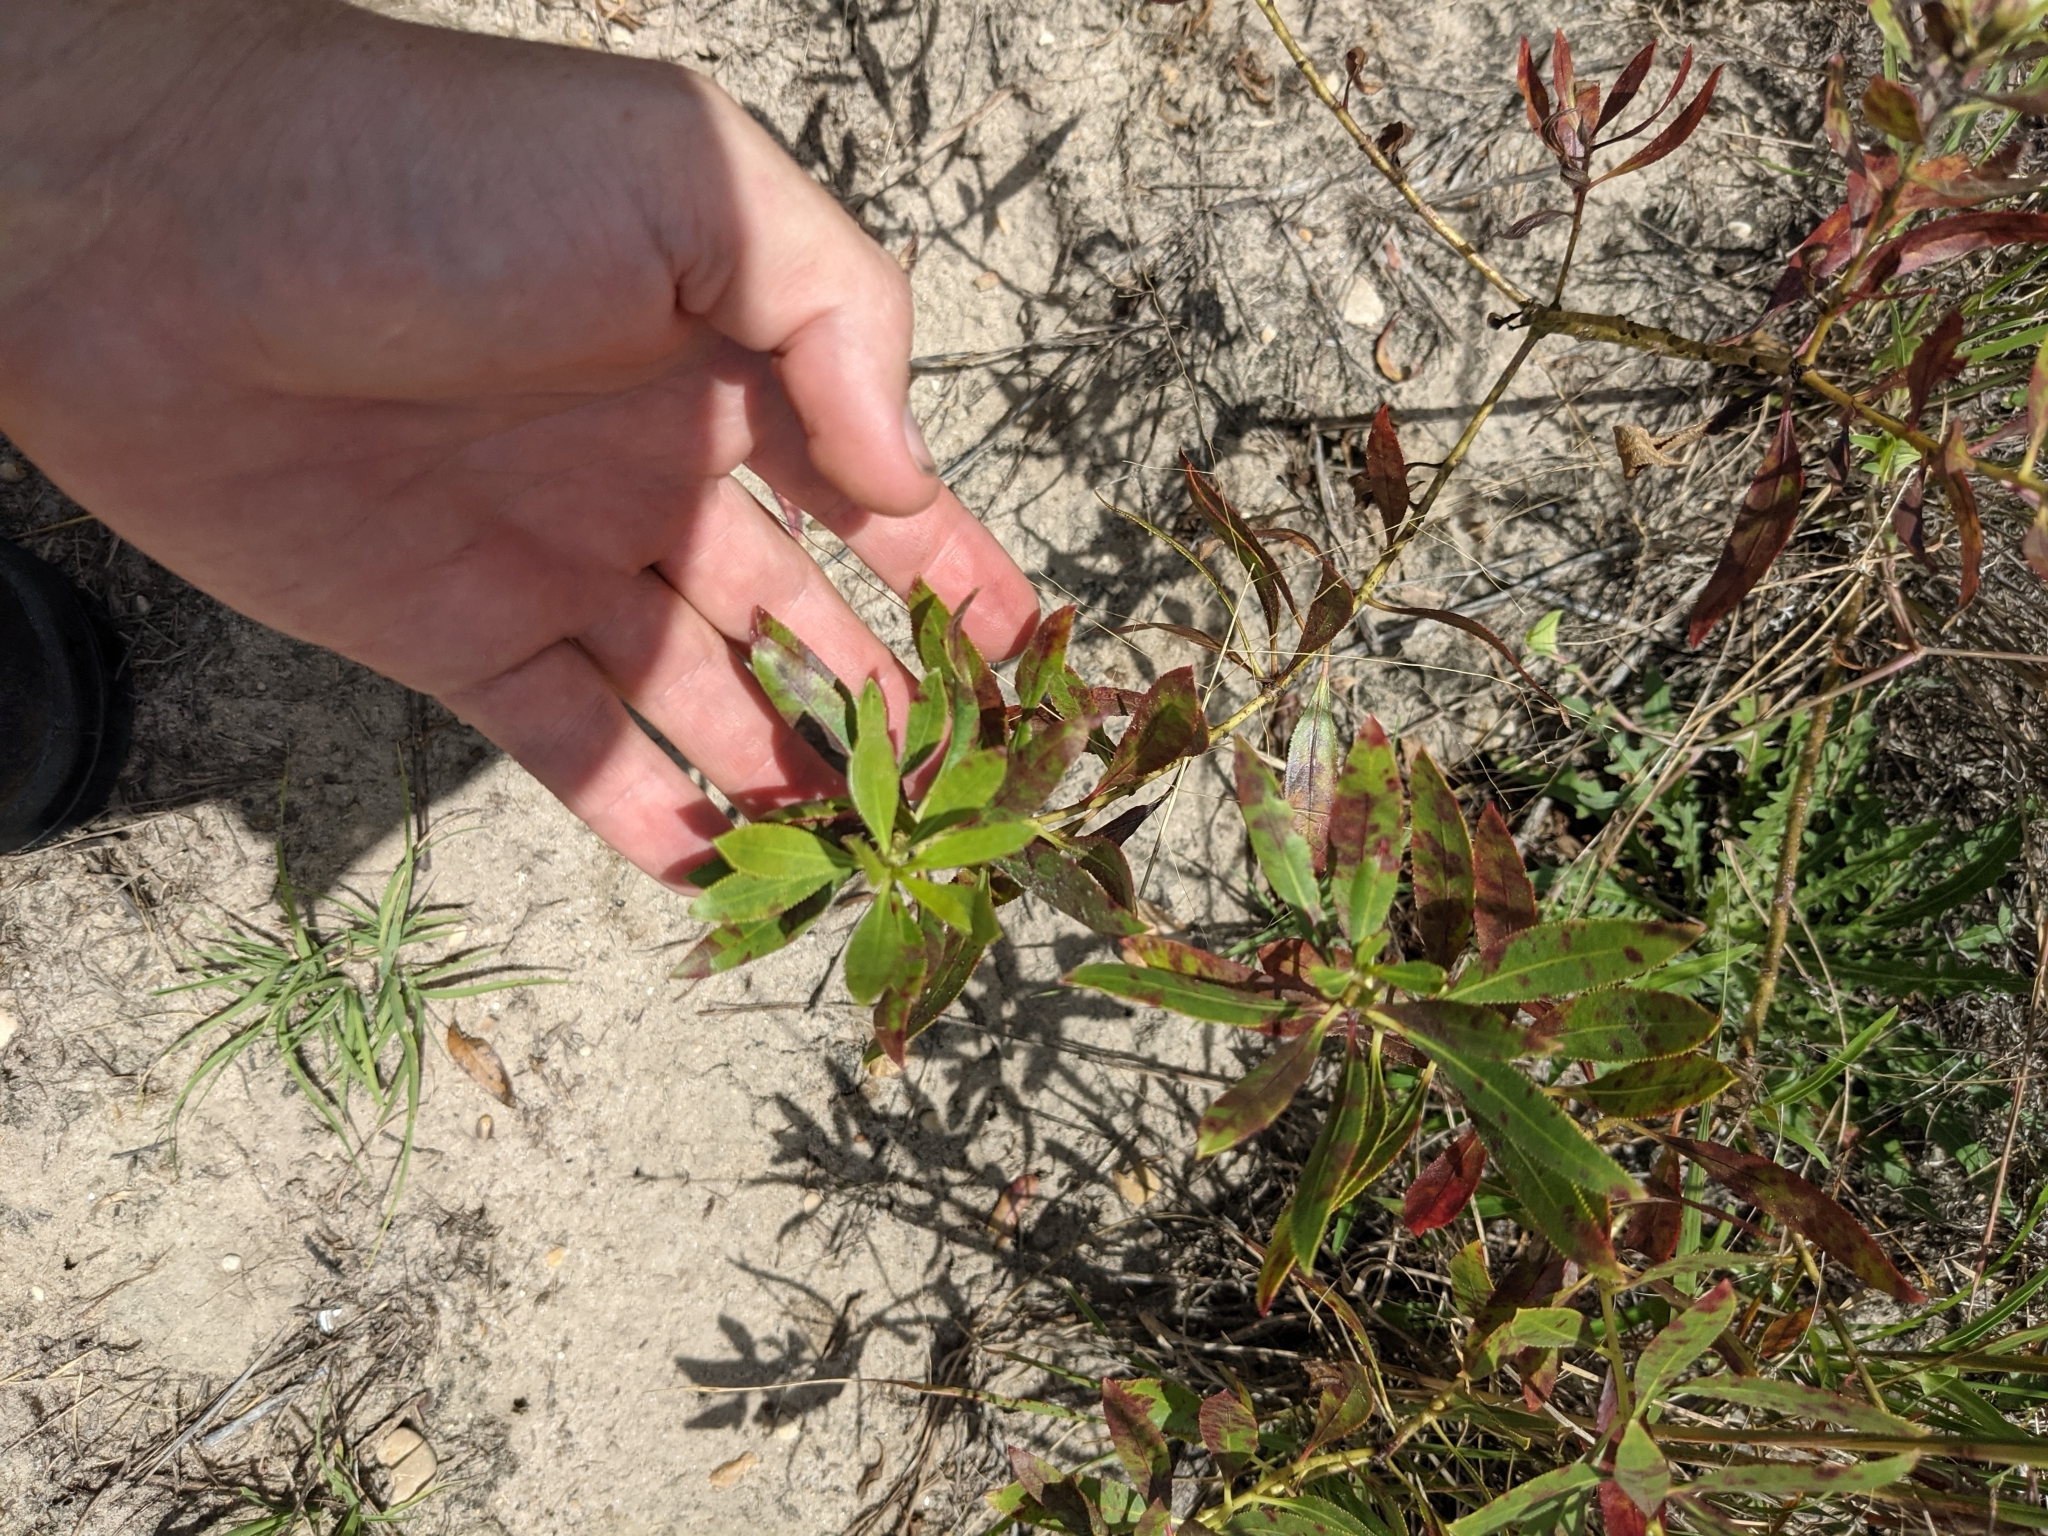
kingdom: Plantae
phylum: Tracheophyta
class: Magnoliopsida
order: Malpighiales
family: Euphorbiaceae
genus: Stillingia
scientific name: Stillingia sylvatica
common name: Queen's-delight
